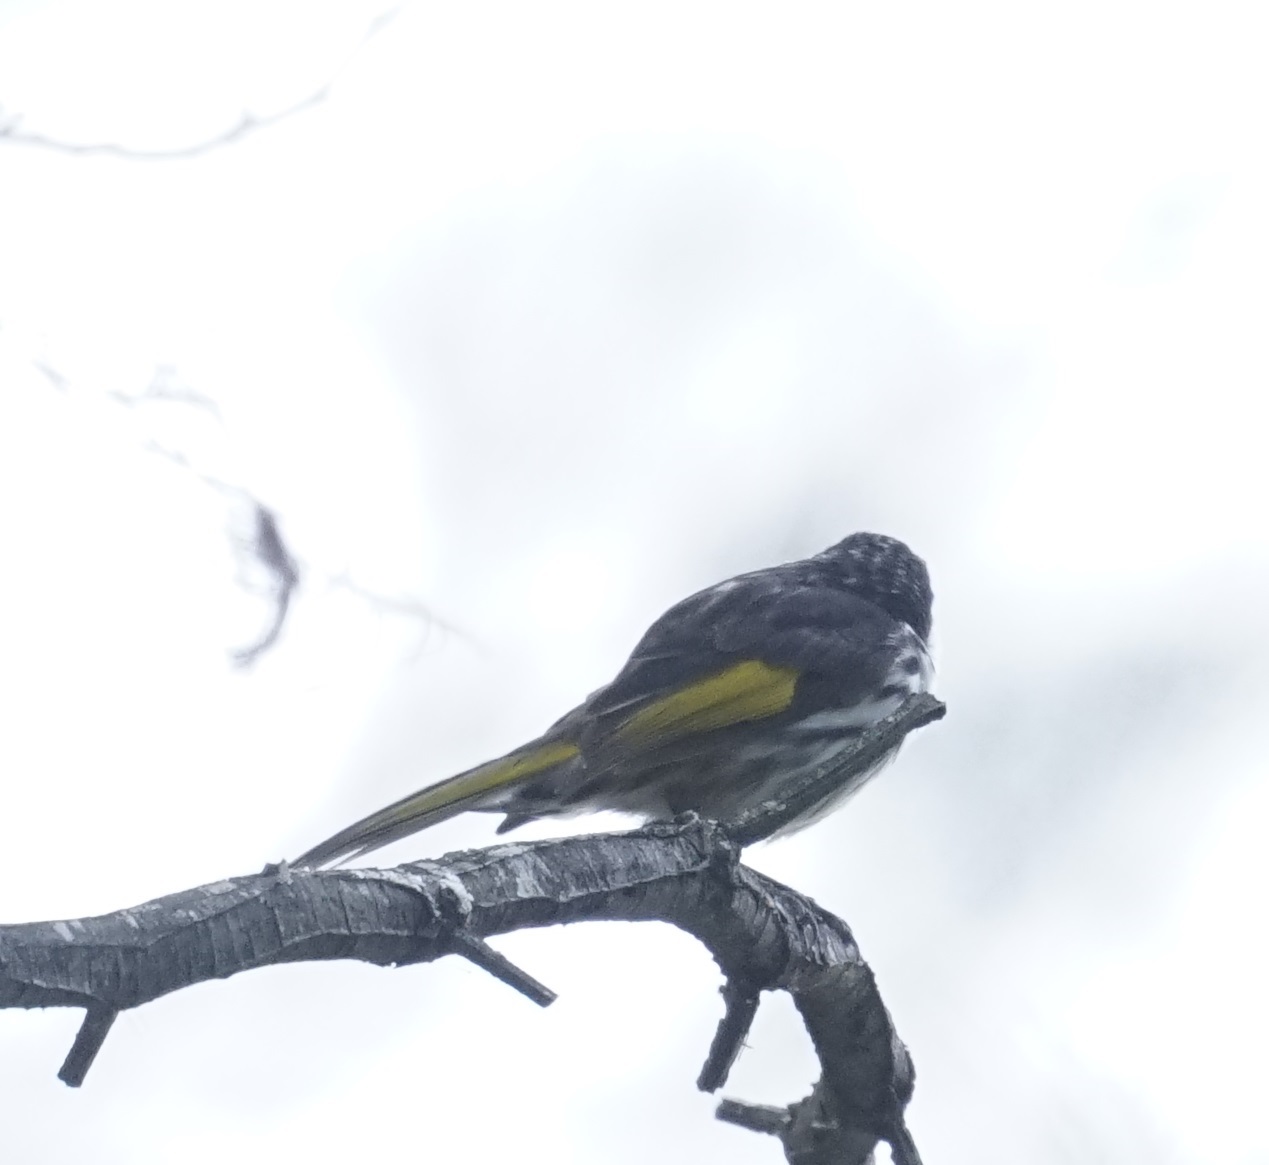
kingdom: Animalia
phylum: Chordata
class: Aves
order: Passeriformes
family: Meliphagidae
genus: Phylidonyris
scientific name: Phylidonyris niger
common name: White-cheeked honeyeater
